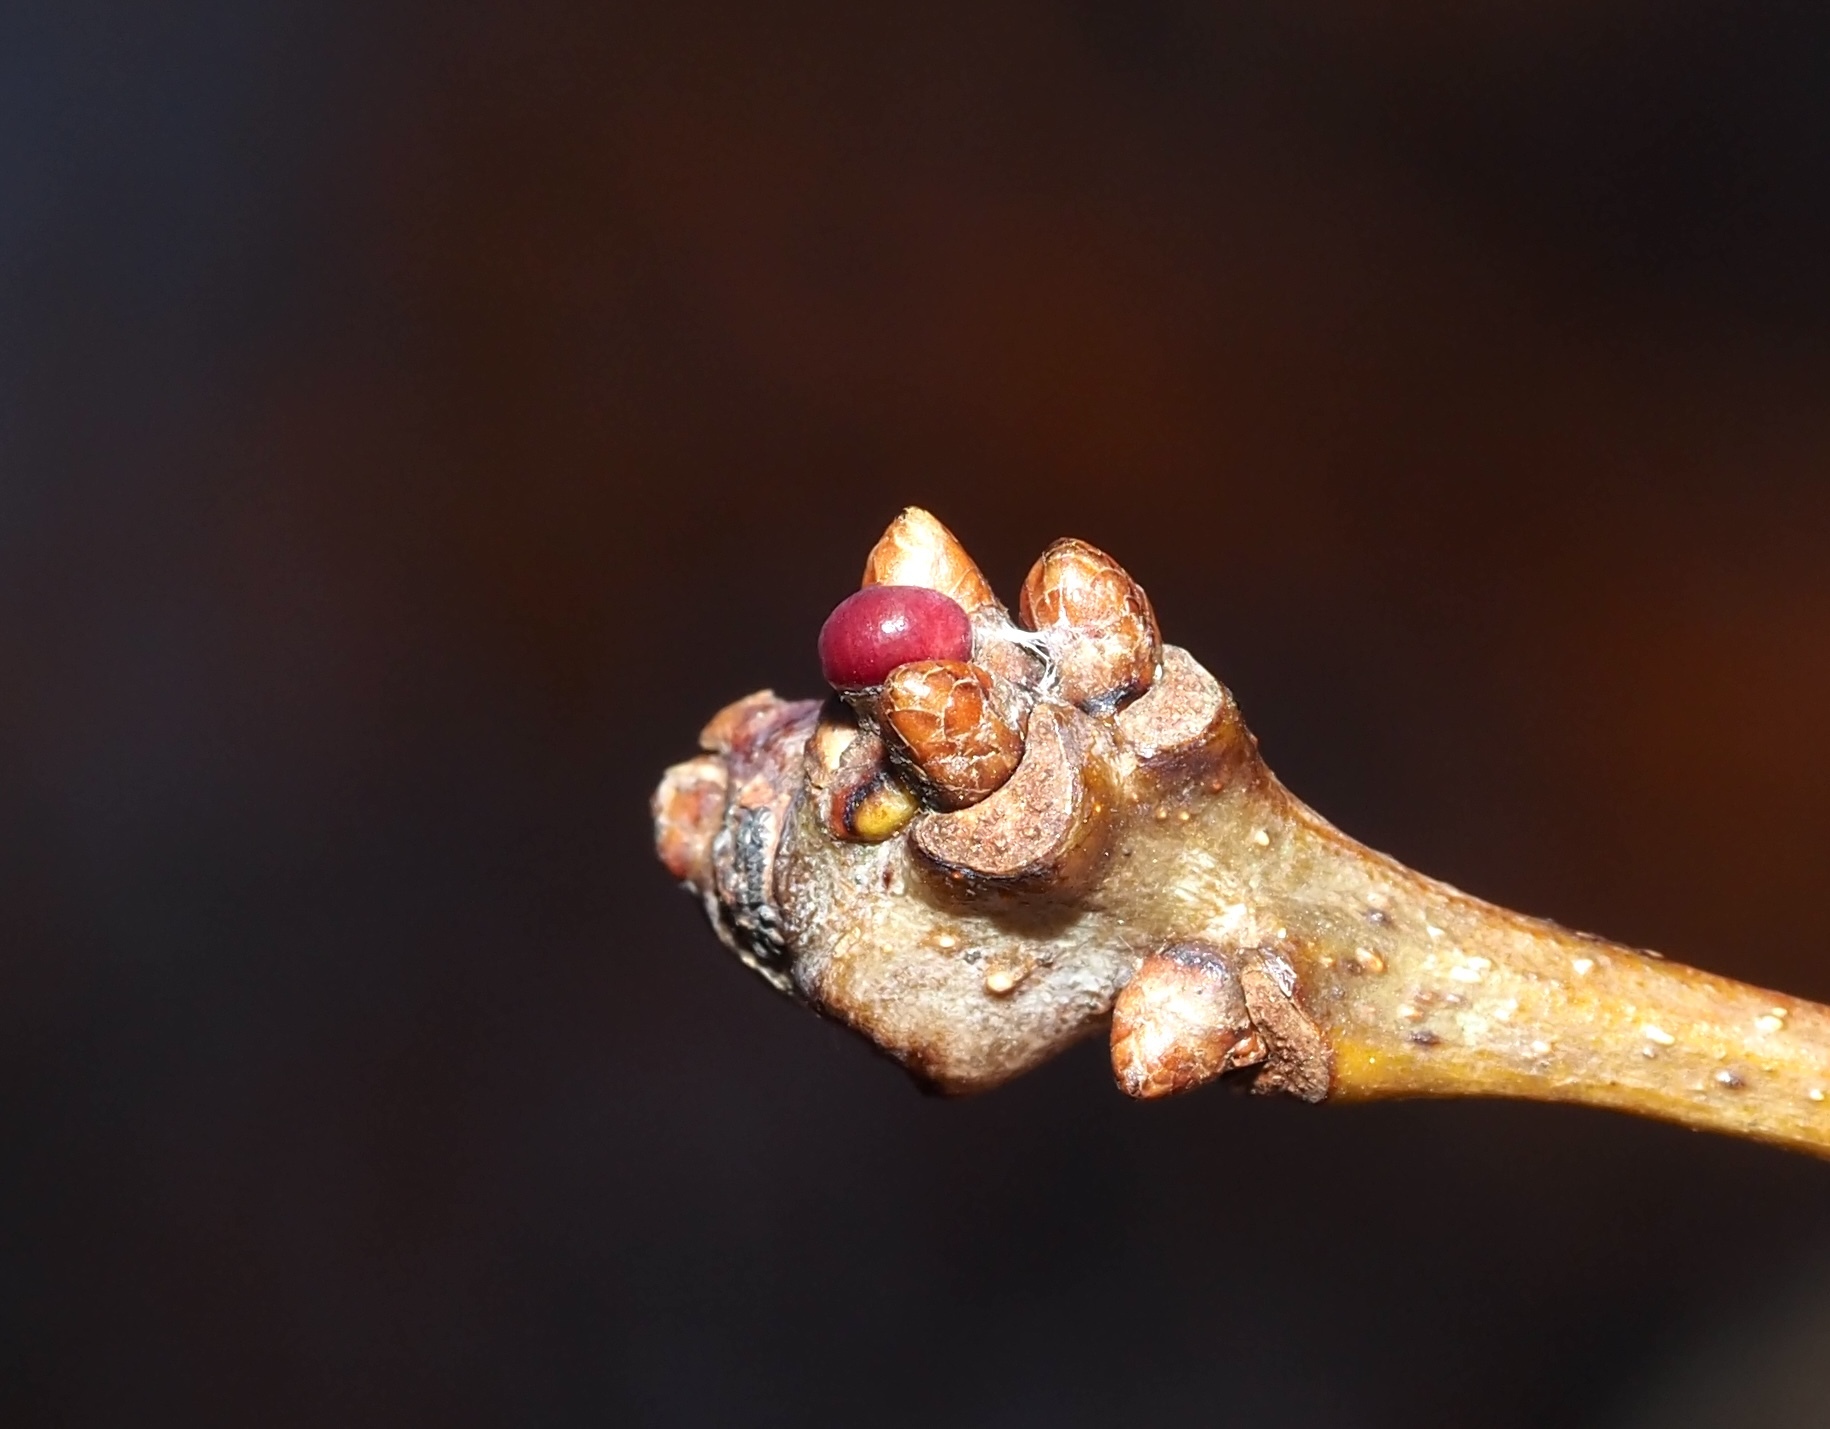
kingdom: Animalia
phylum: Arthropoda
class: Insecta
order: Hymenoptera
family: Cynipidae
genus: Neuroterus
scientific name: Neuroterus
